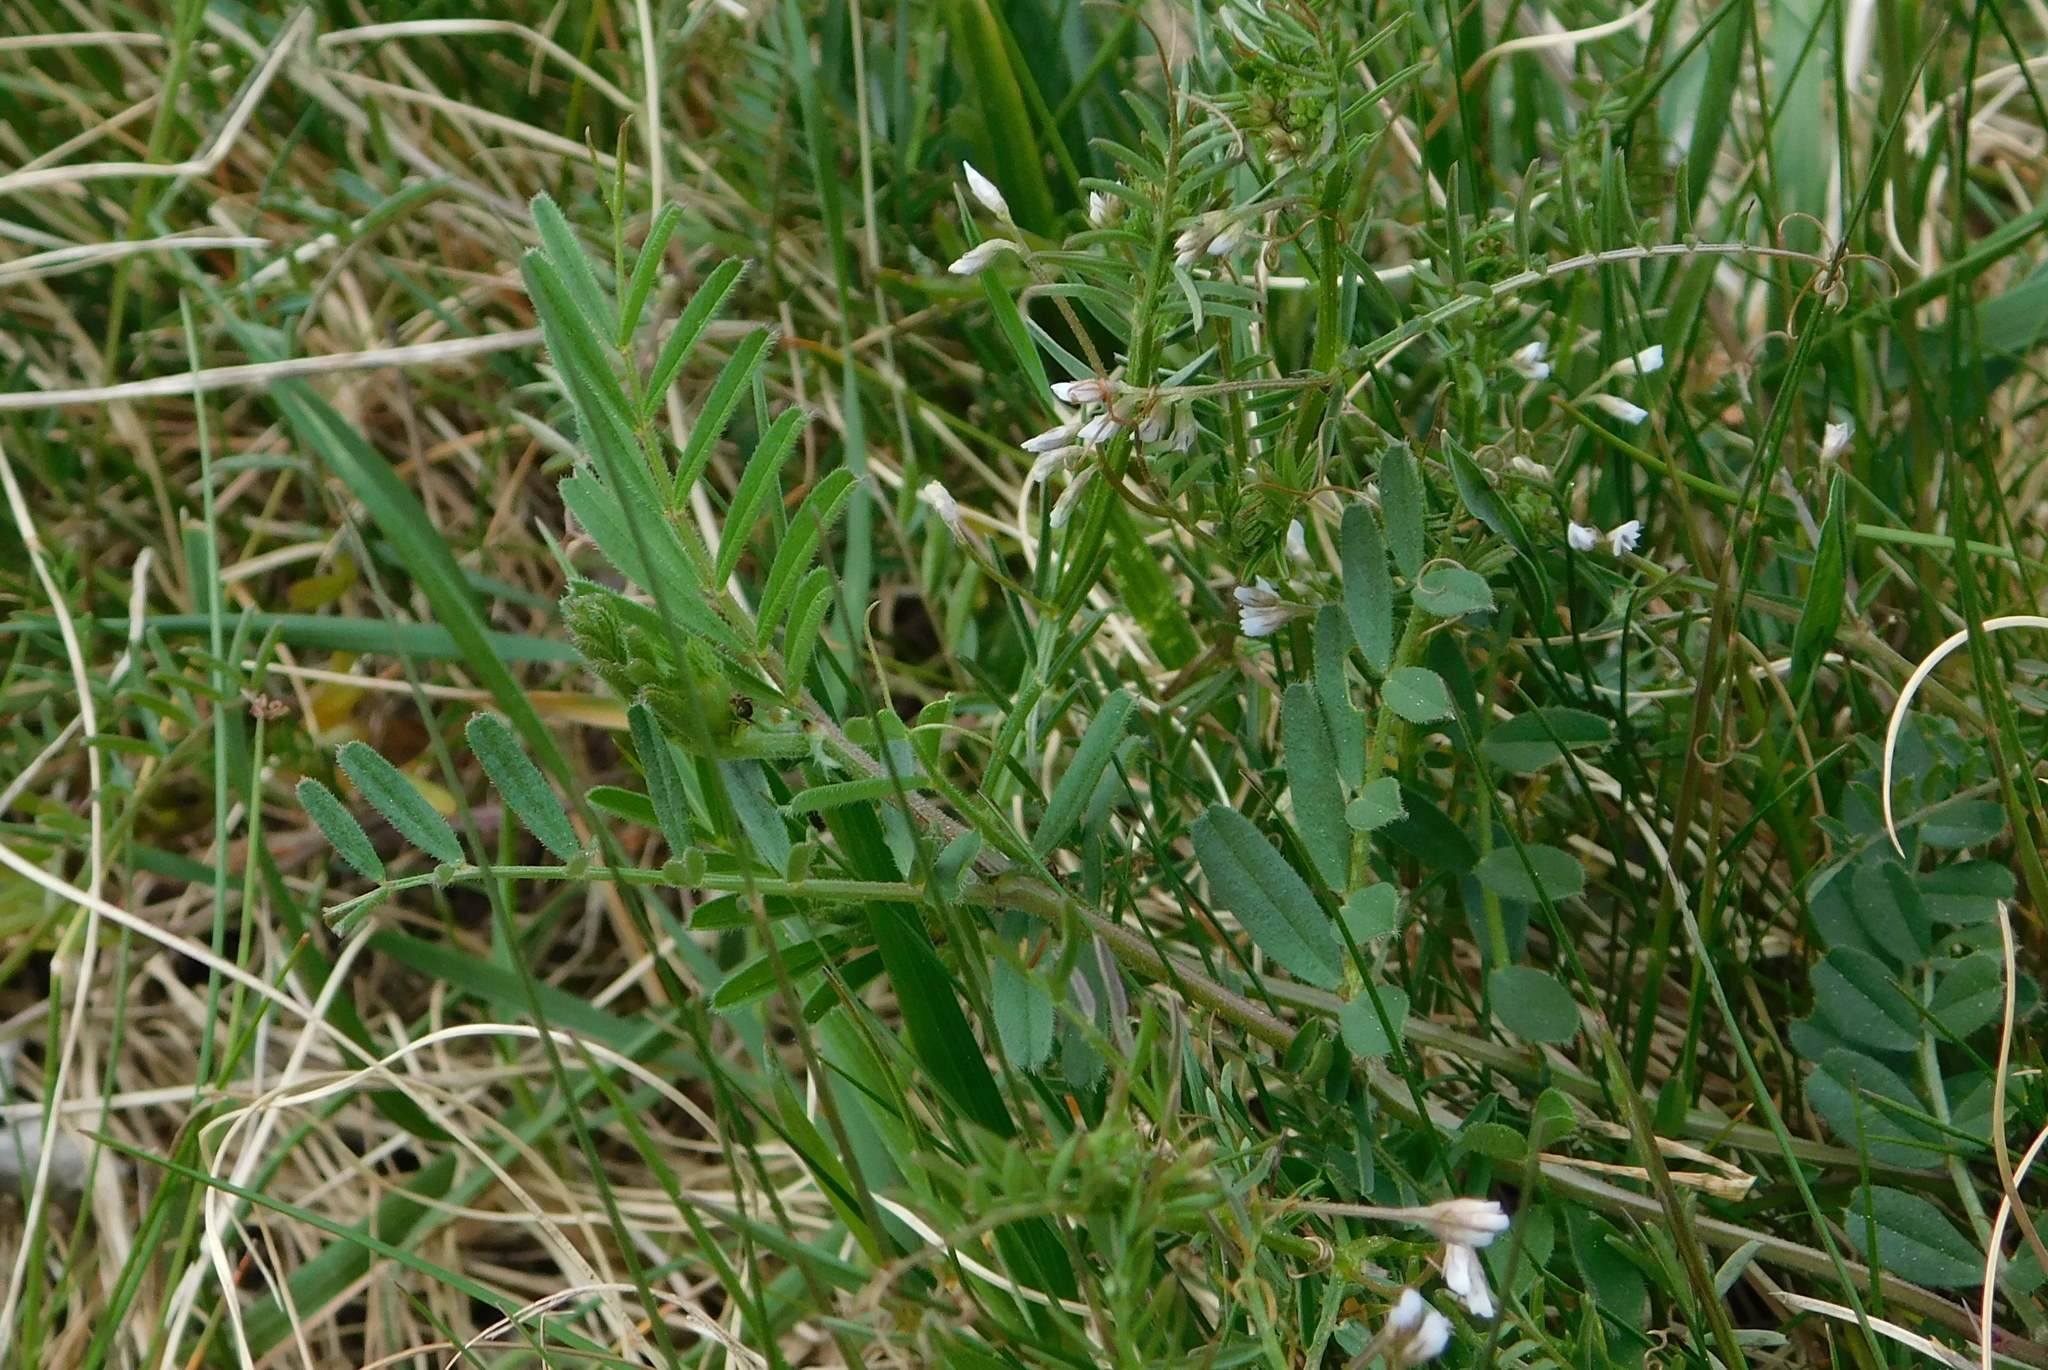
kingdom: Plantae
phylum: Tracheophyta
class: Magnoliopsida
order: Fabales
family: Fabaceae
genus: Vicia
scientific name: Vicia hirsuta
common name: Tiny vetch
